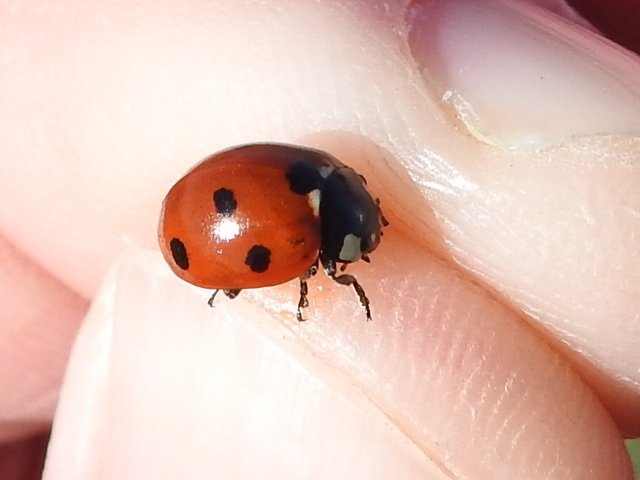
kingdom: Animalia
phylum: Arthropoda
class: Insecta
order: Coleoptera
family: Coccinellidae
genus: Coccinella
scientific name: Coccinella septempunctata
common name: Sevenspotted lady beetle
